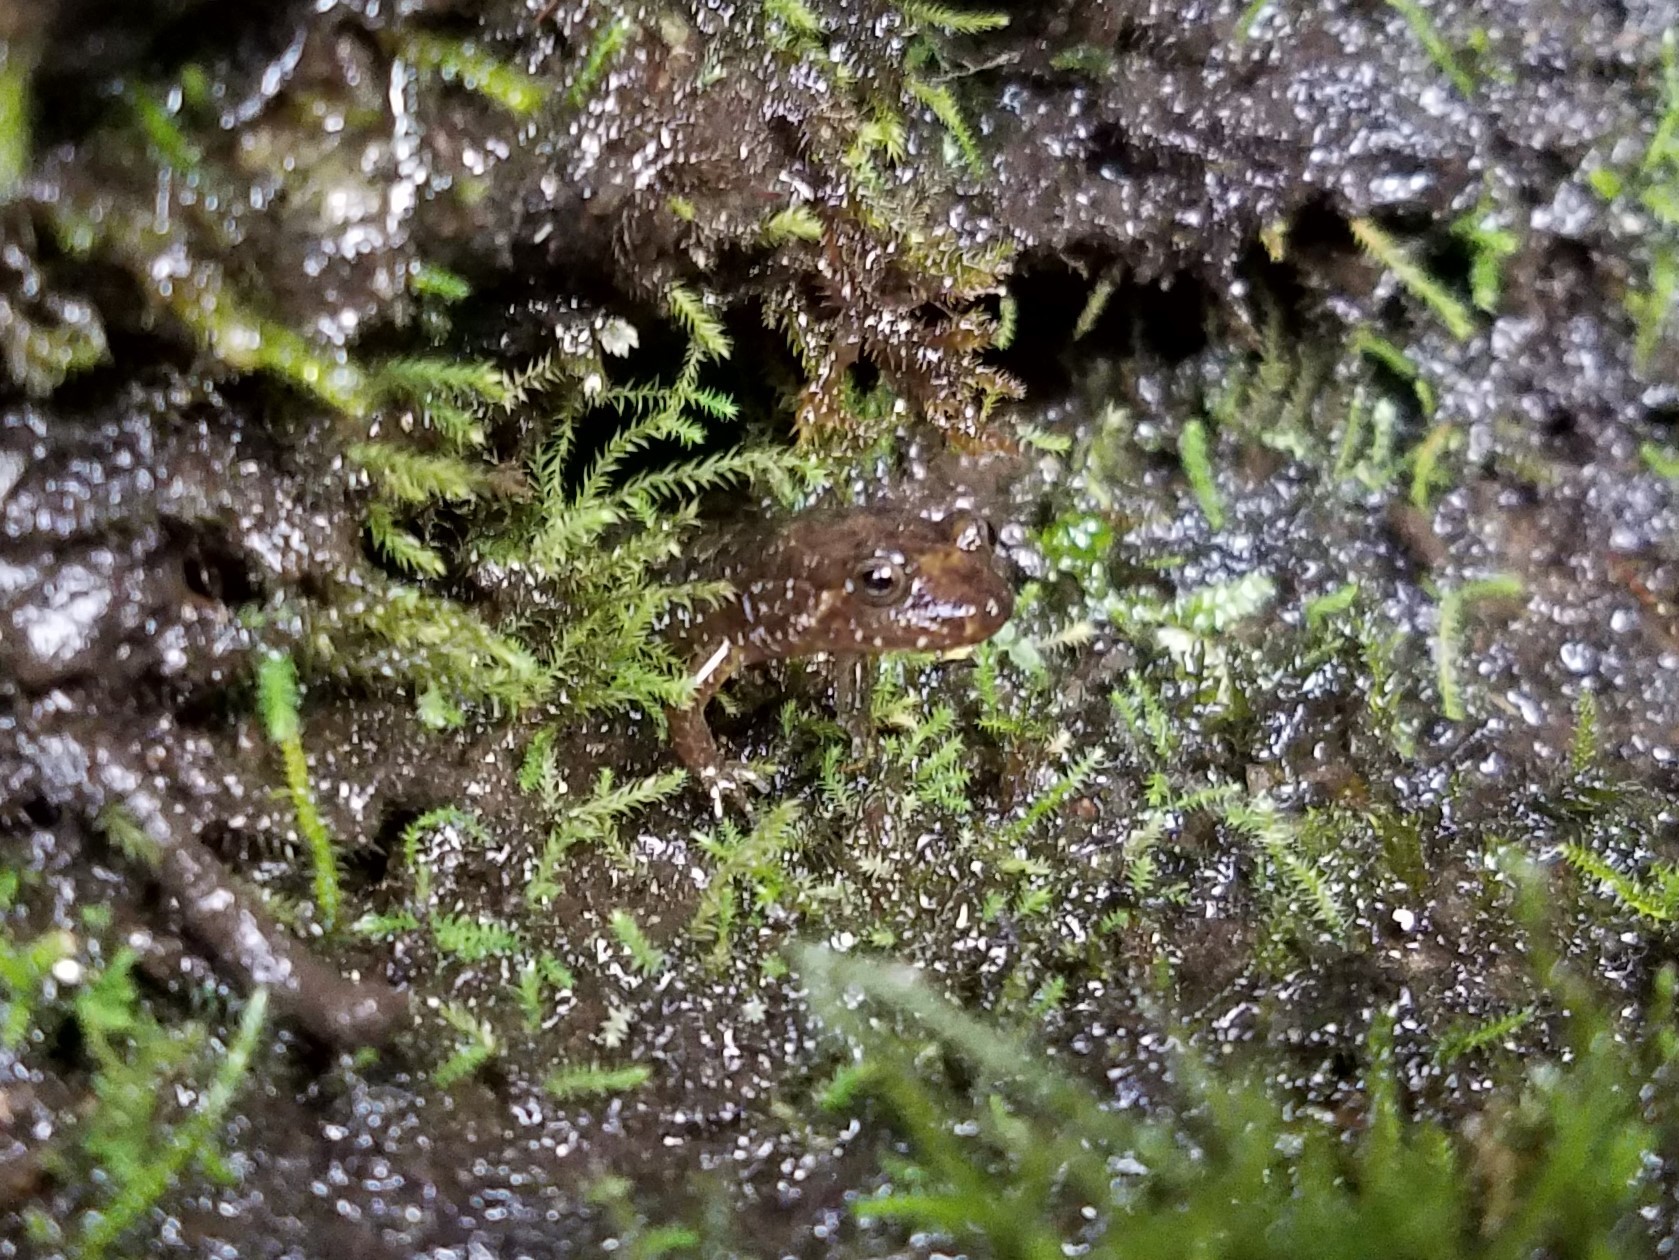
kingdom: Animalia
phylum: Chordata
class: Amphibia
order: Caudata
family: Plethodontidae
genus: Desmognathus
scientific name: Desmognathus monticola
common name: Seal salamander
